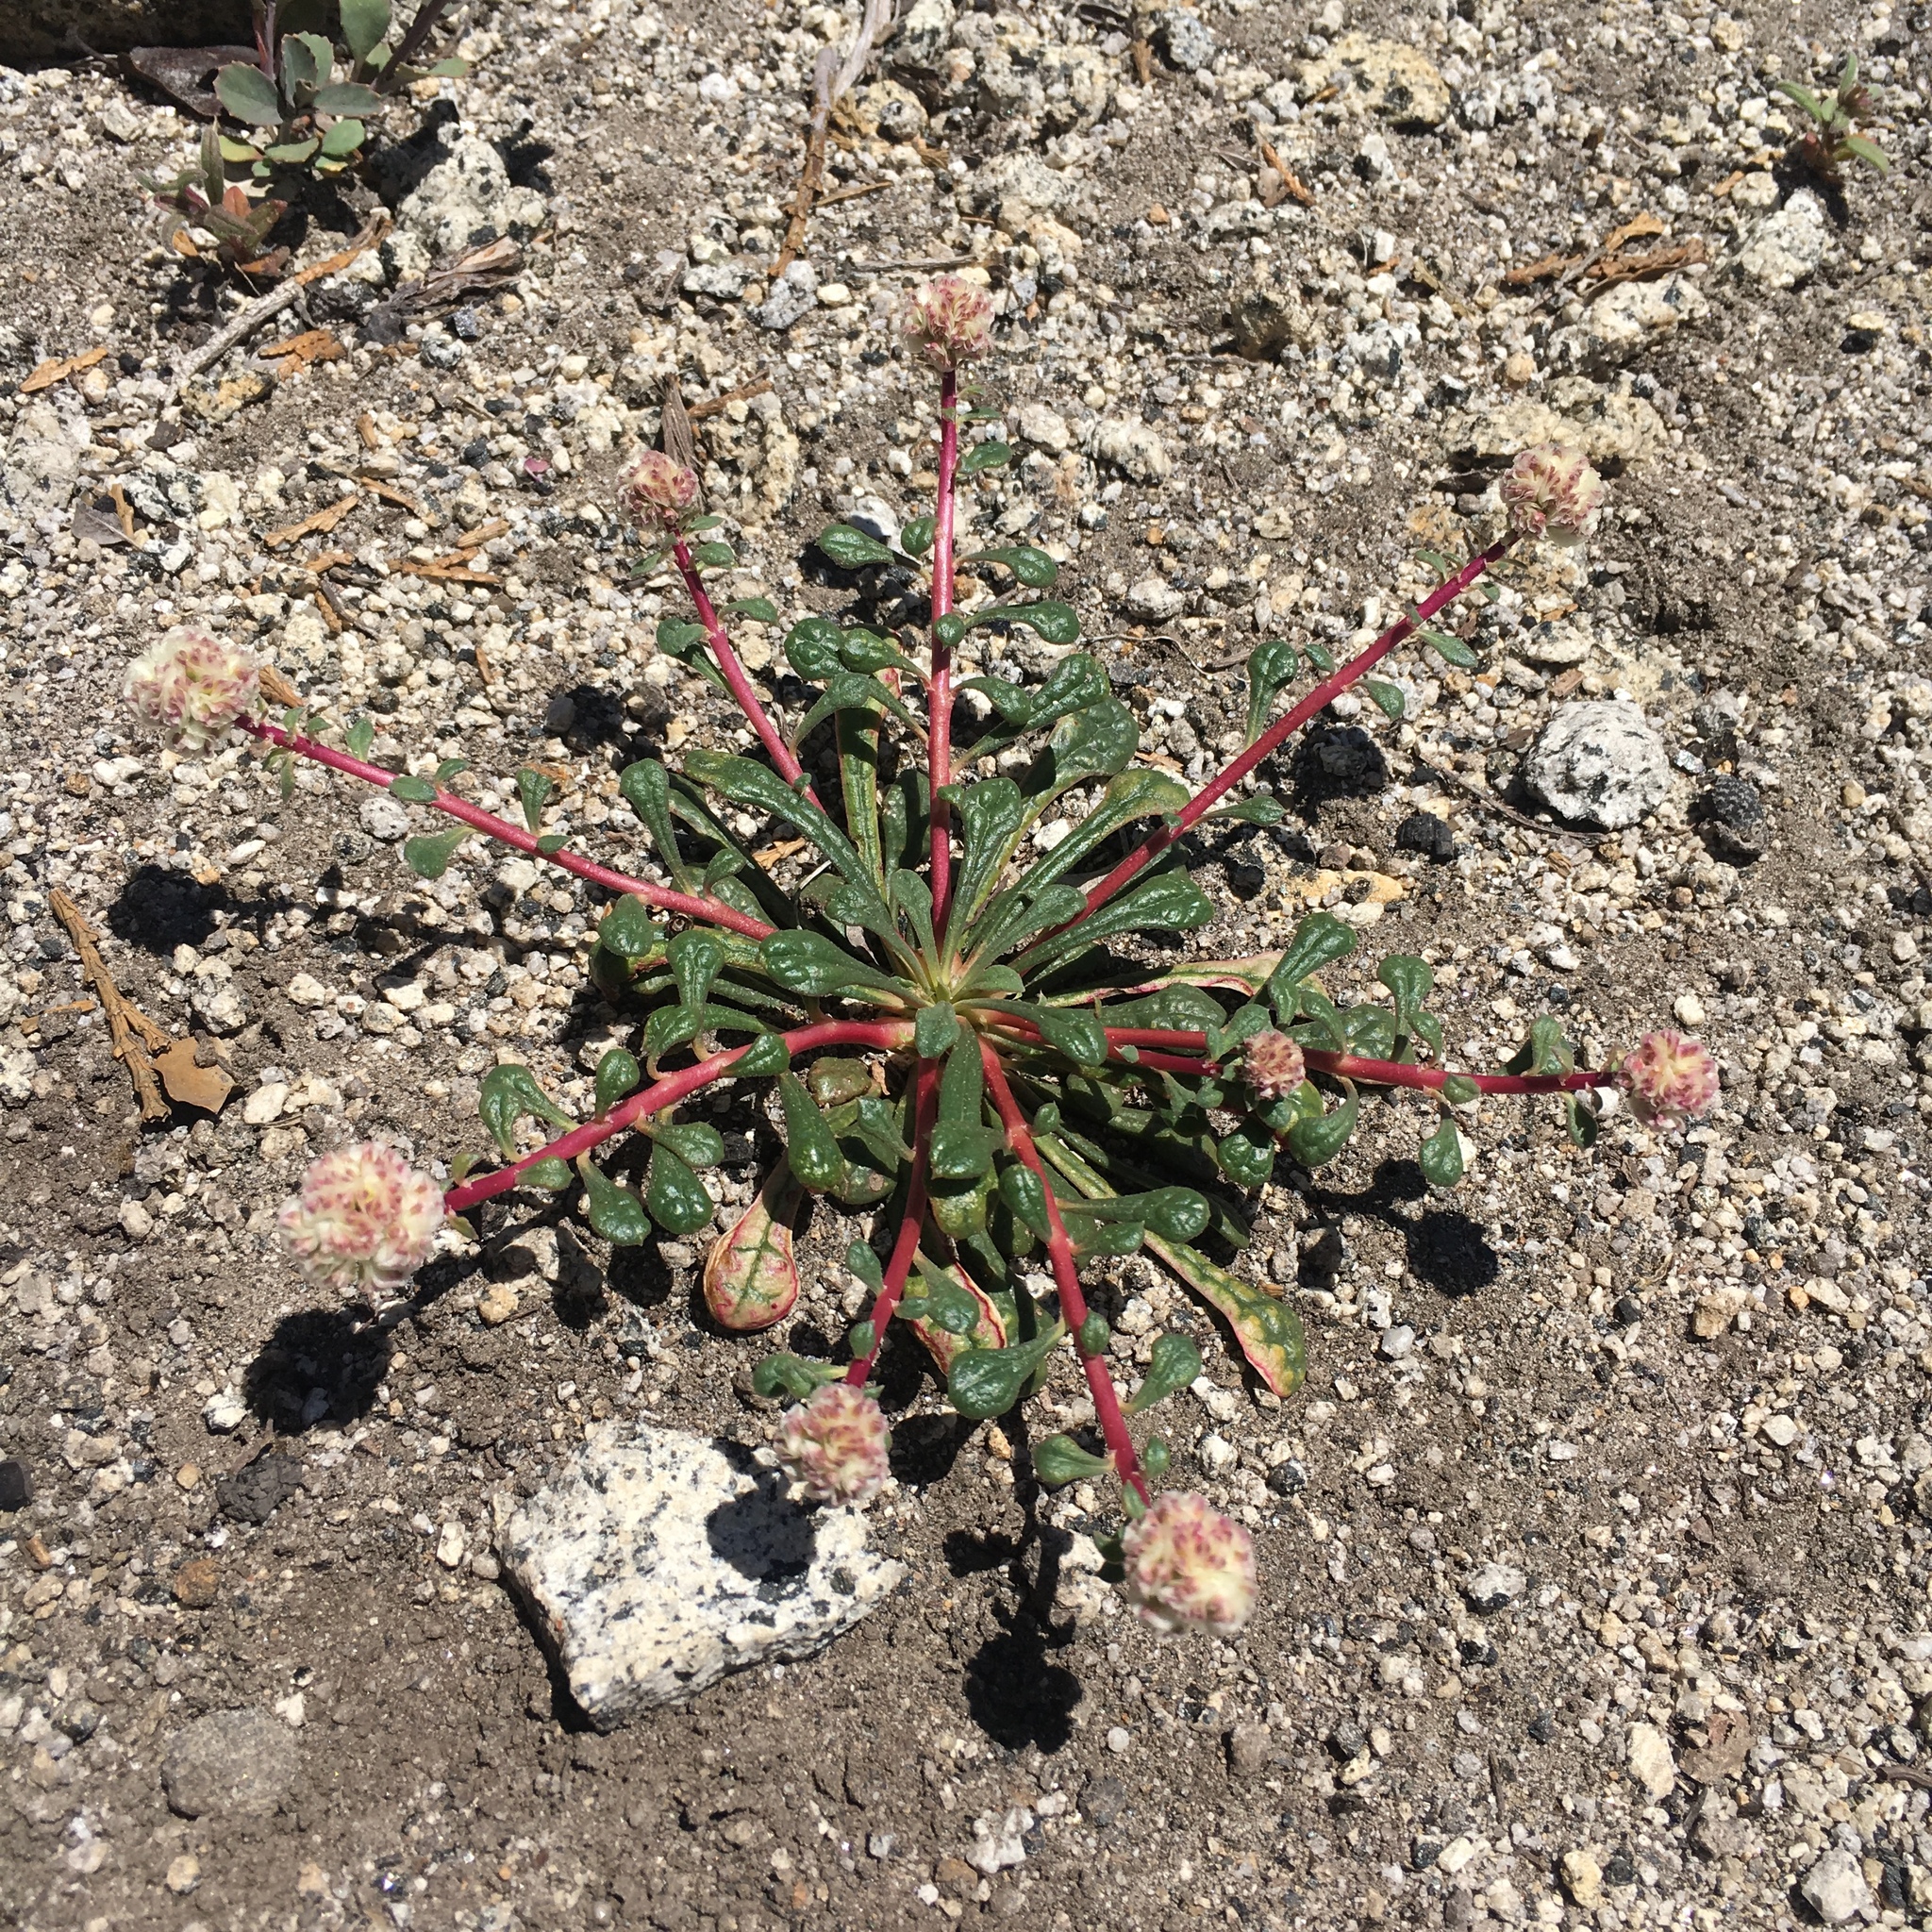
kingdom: Plantae
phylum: Tracheophyta
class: Magnoliopsida
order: Caryophyllales
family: Montiaceae
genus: Calyptridium
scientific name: Calyptridium monospermum
